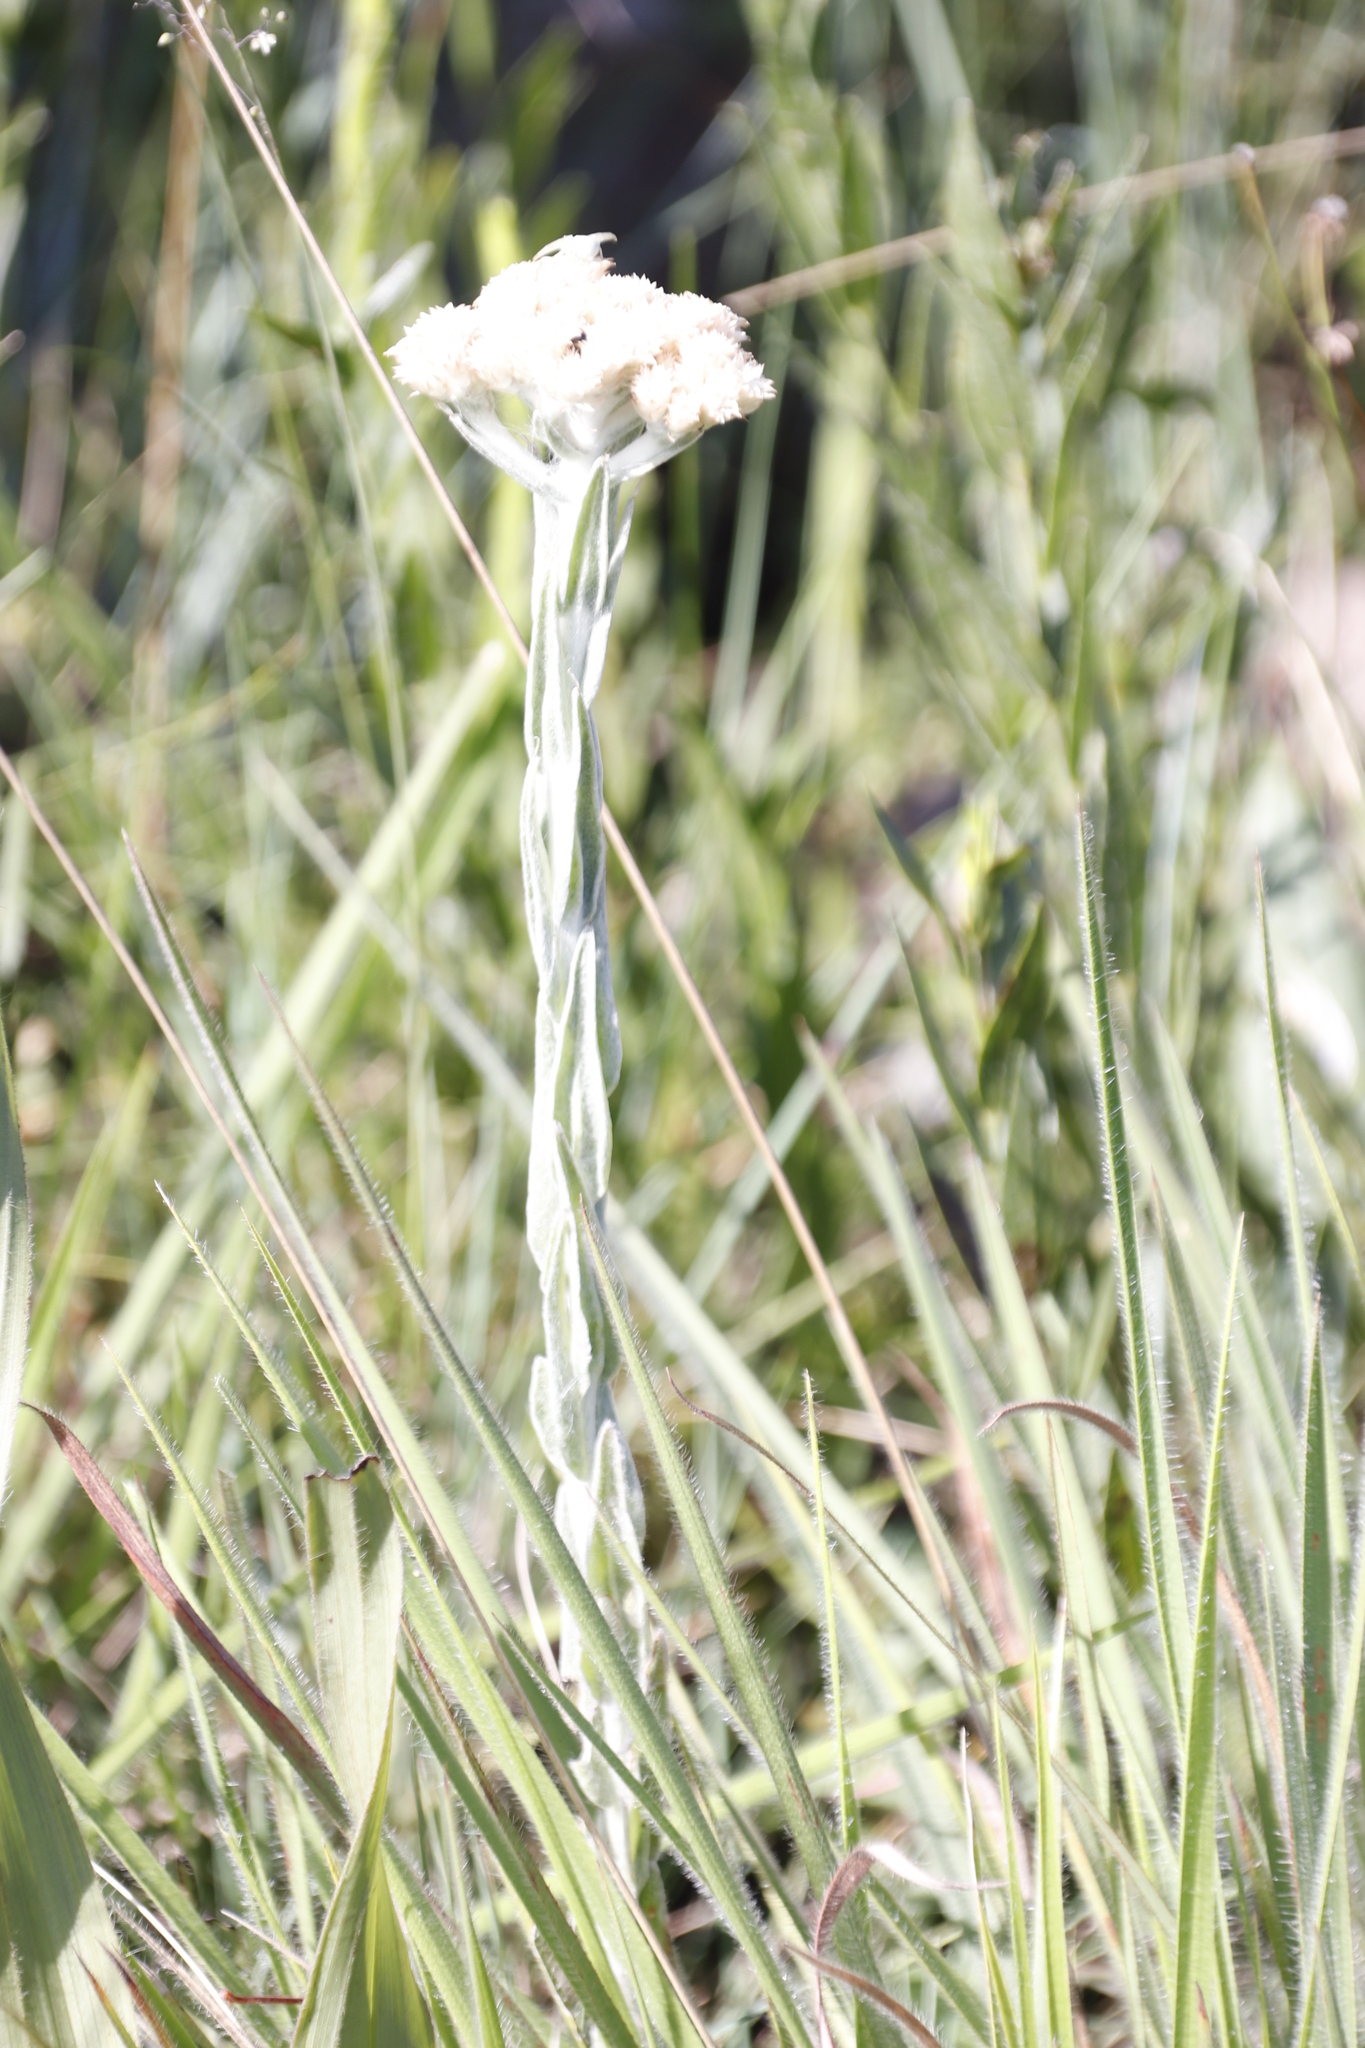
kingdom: Plantae
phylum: Tracheophyta
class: Magnoliopsida
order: Asterales
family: Asteraceae
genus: Helichrysum
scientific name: Helichrysum glomeratum
